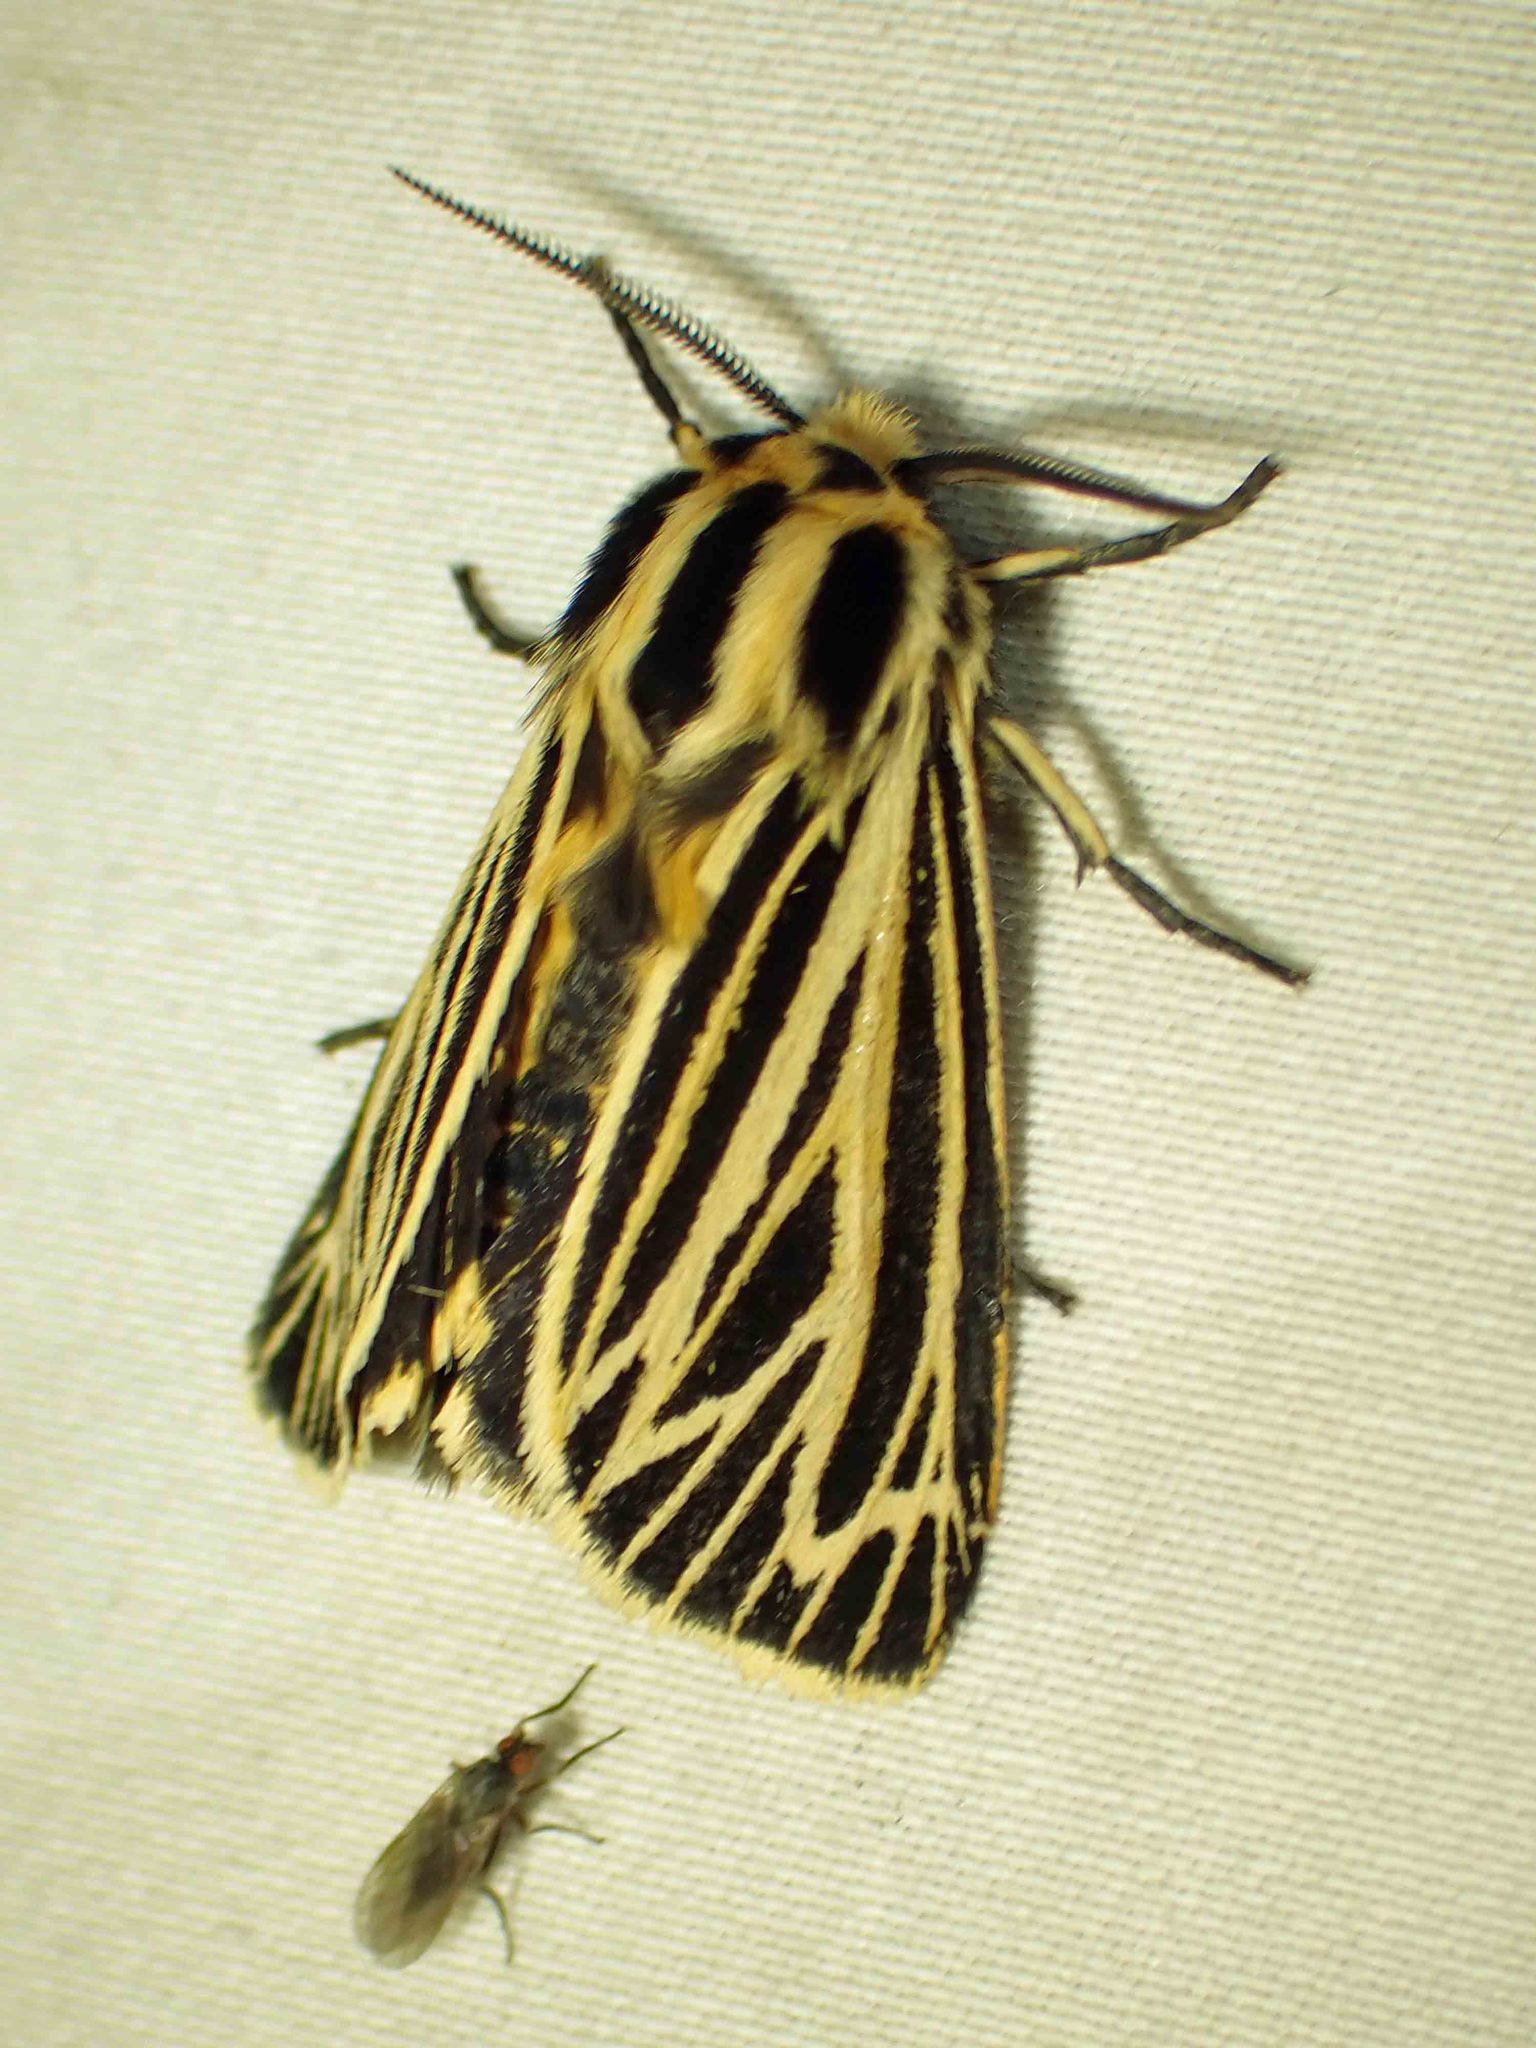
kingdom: Animalia
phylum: Arthropoda
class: Insecta
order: Lepidoptera
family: Erebidae
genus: Grammia
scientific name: Grammia virguncula
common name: Little tiger moth
